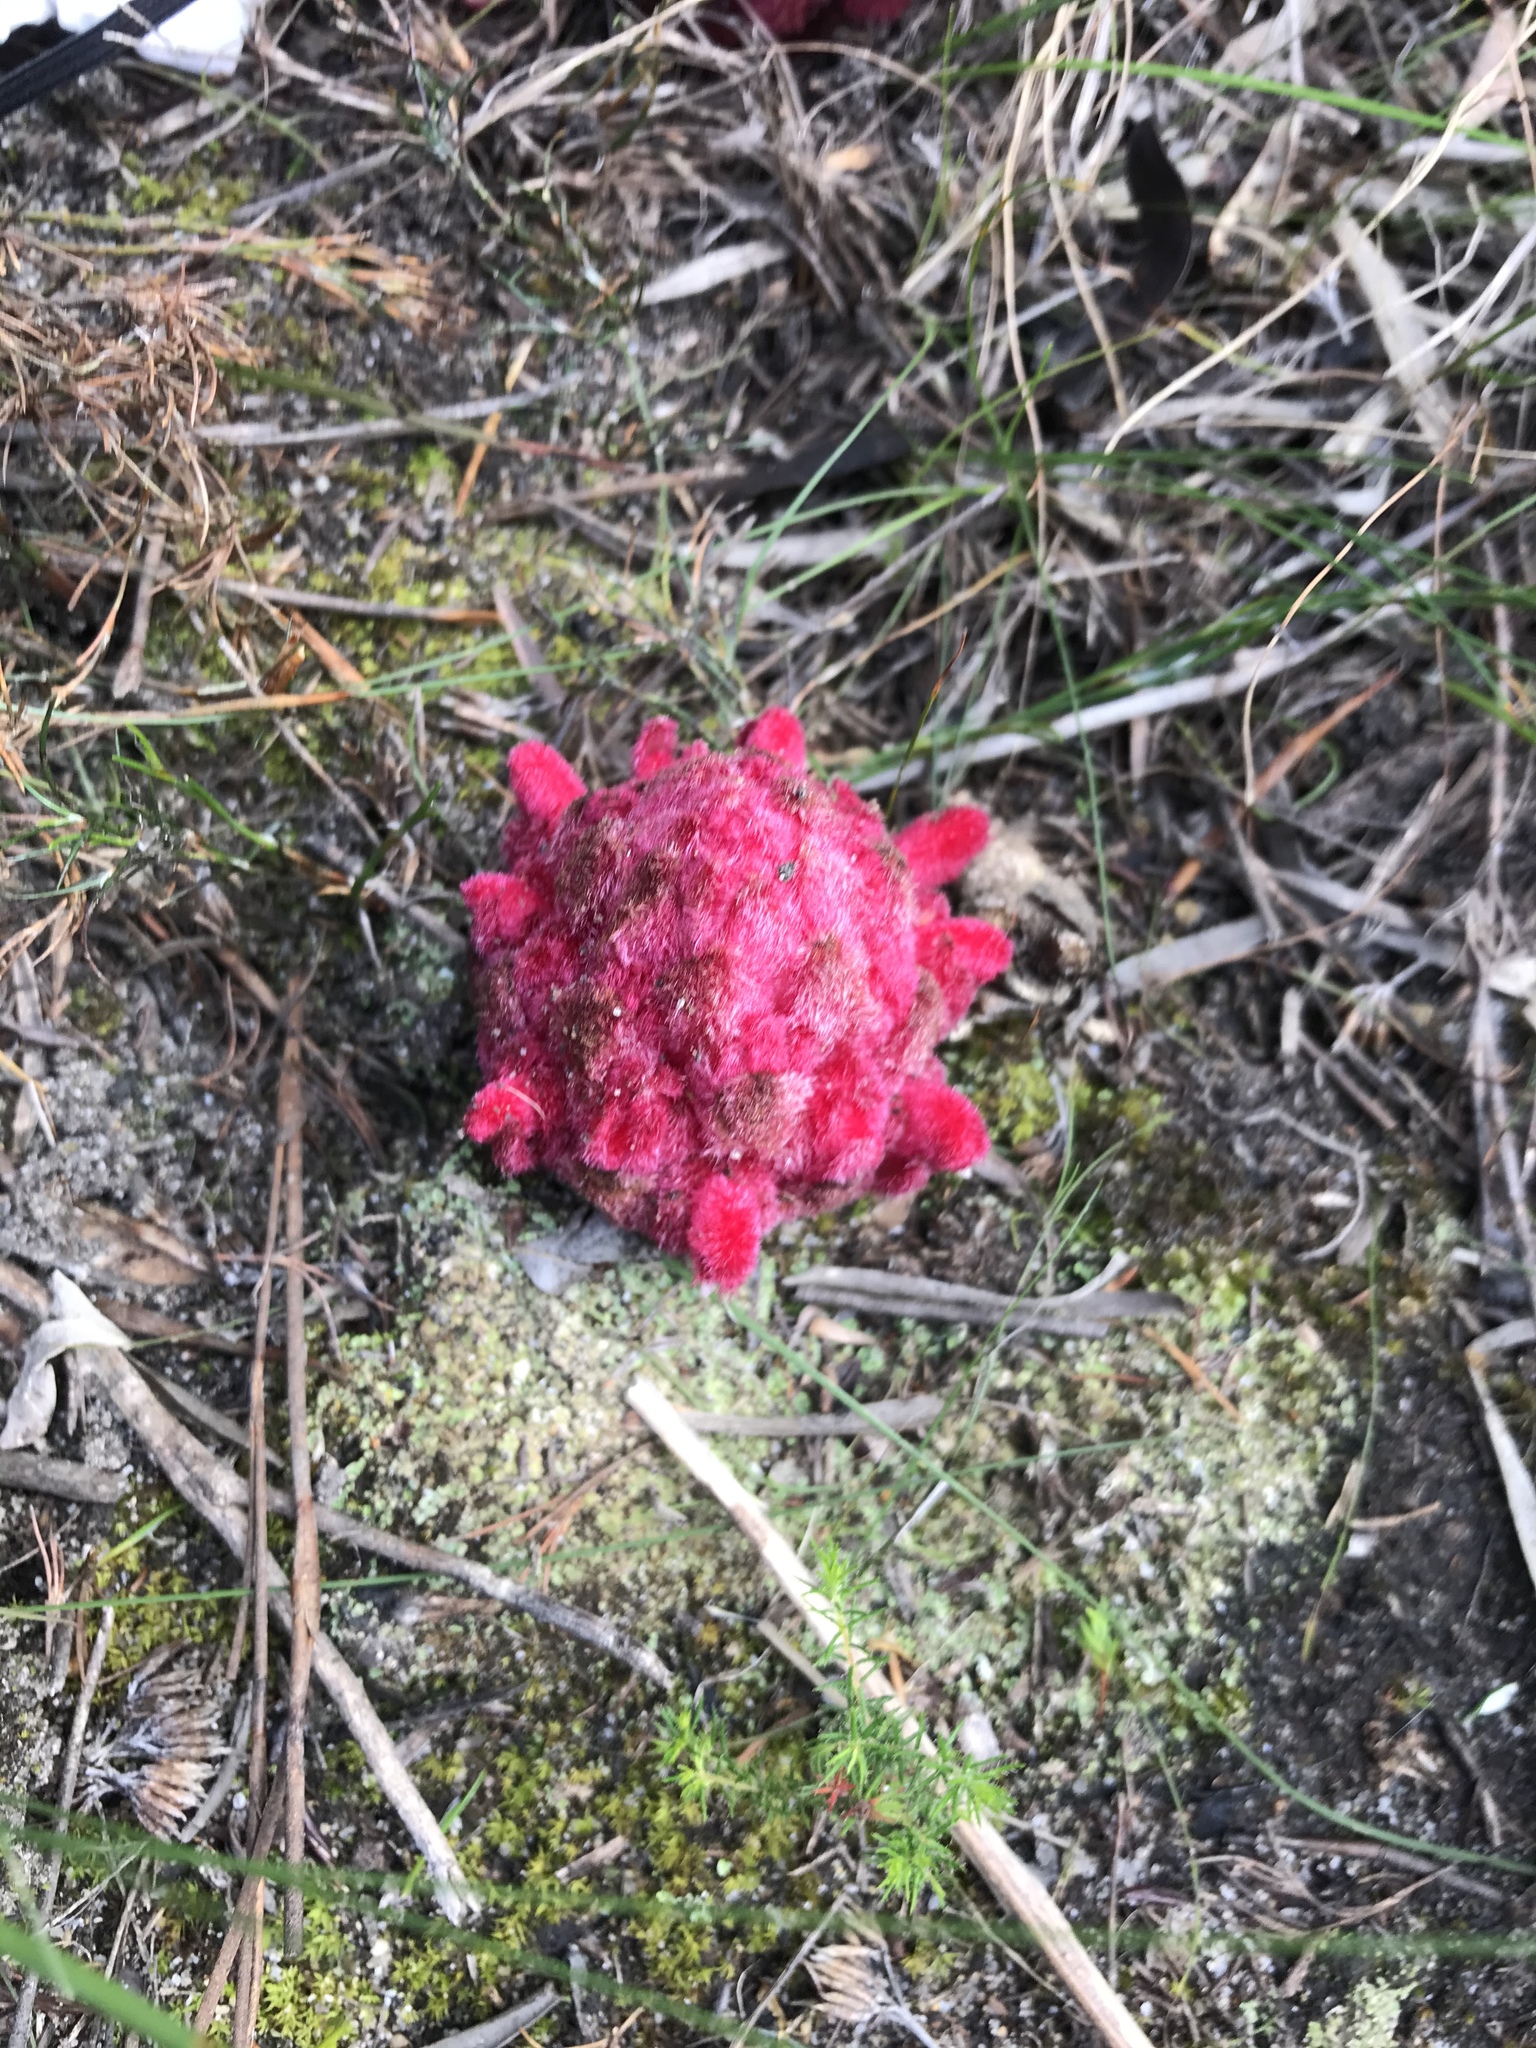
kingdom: Plantae
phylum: Tracheophyta
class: Magnoliopsida
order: Lamiales
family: Orobanchaceae
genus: Hyobanche
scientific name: Hyobanche sanguinea
